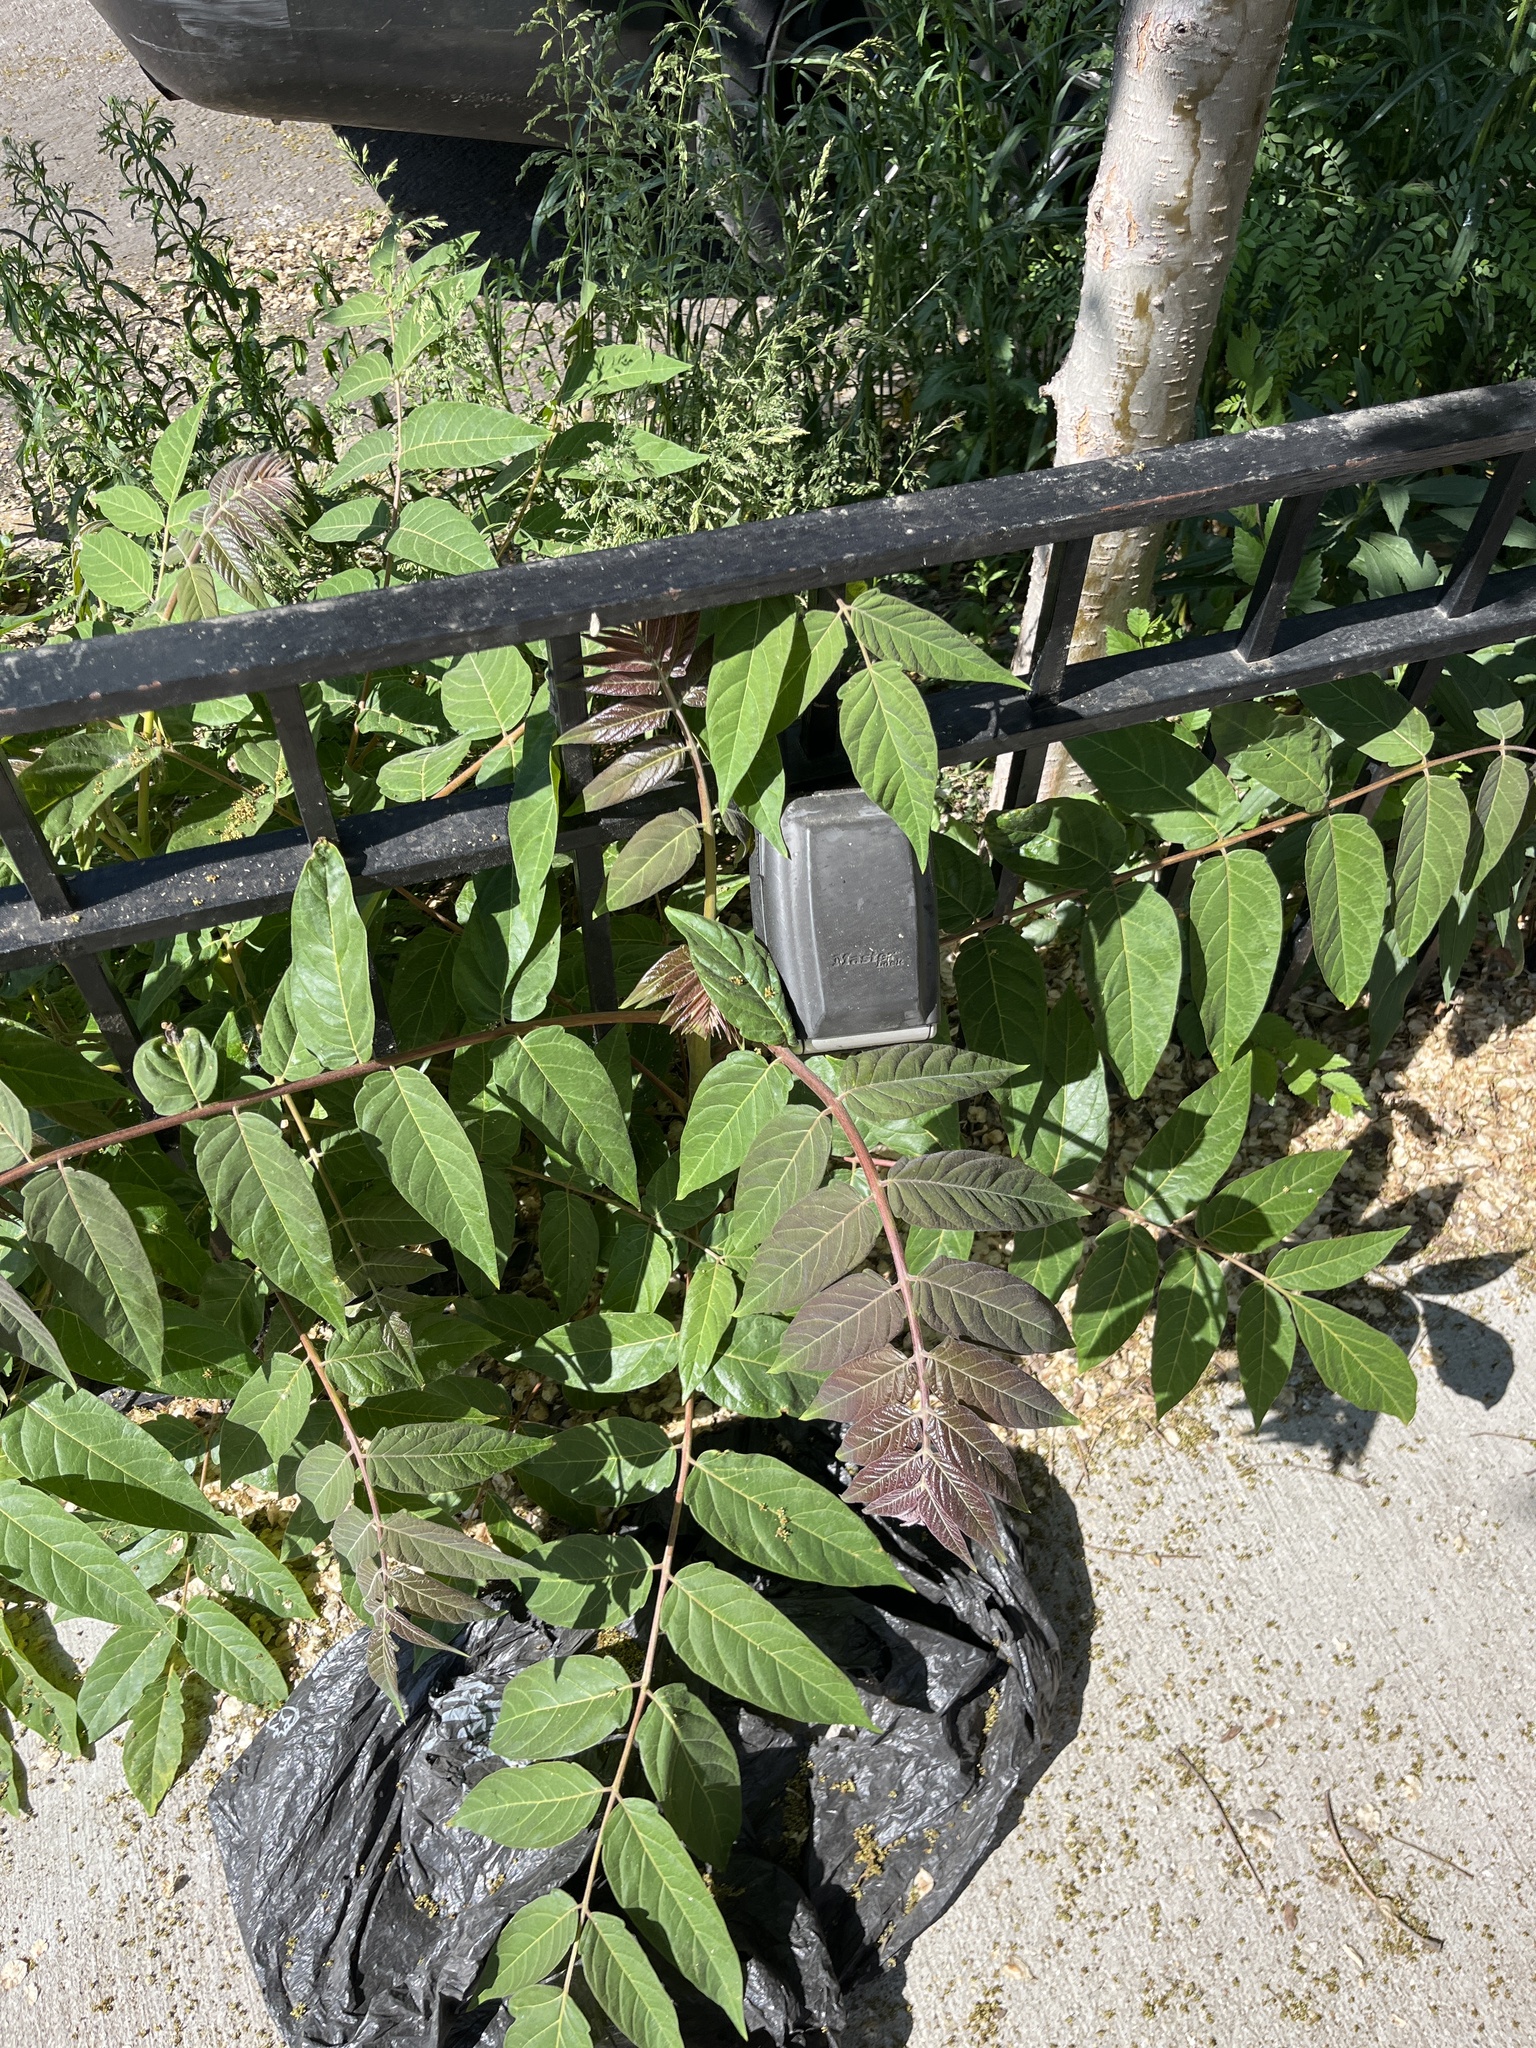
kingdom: Plantae
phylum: Tracheophyta
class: Magnoliopsida
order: Sapindales
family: Simaroubaceae
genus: Ailanthus
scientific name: Ailanthus altissima
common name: Tree-of-heaven
